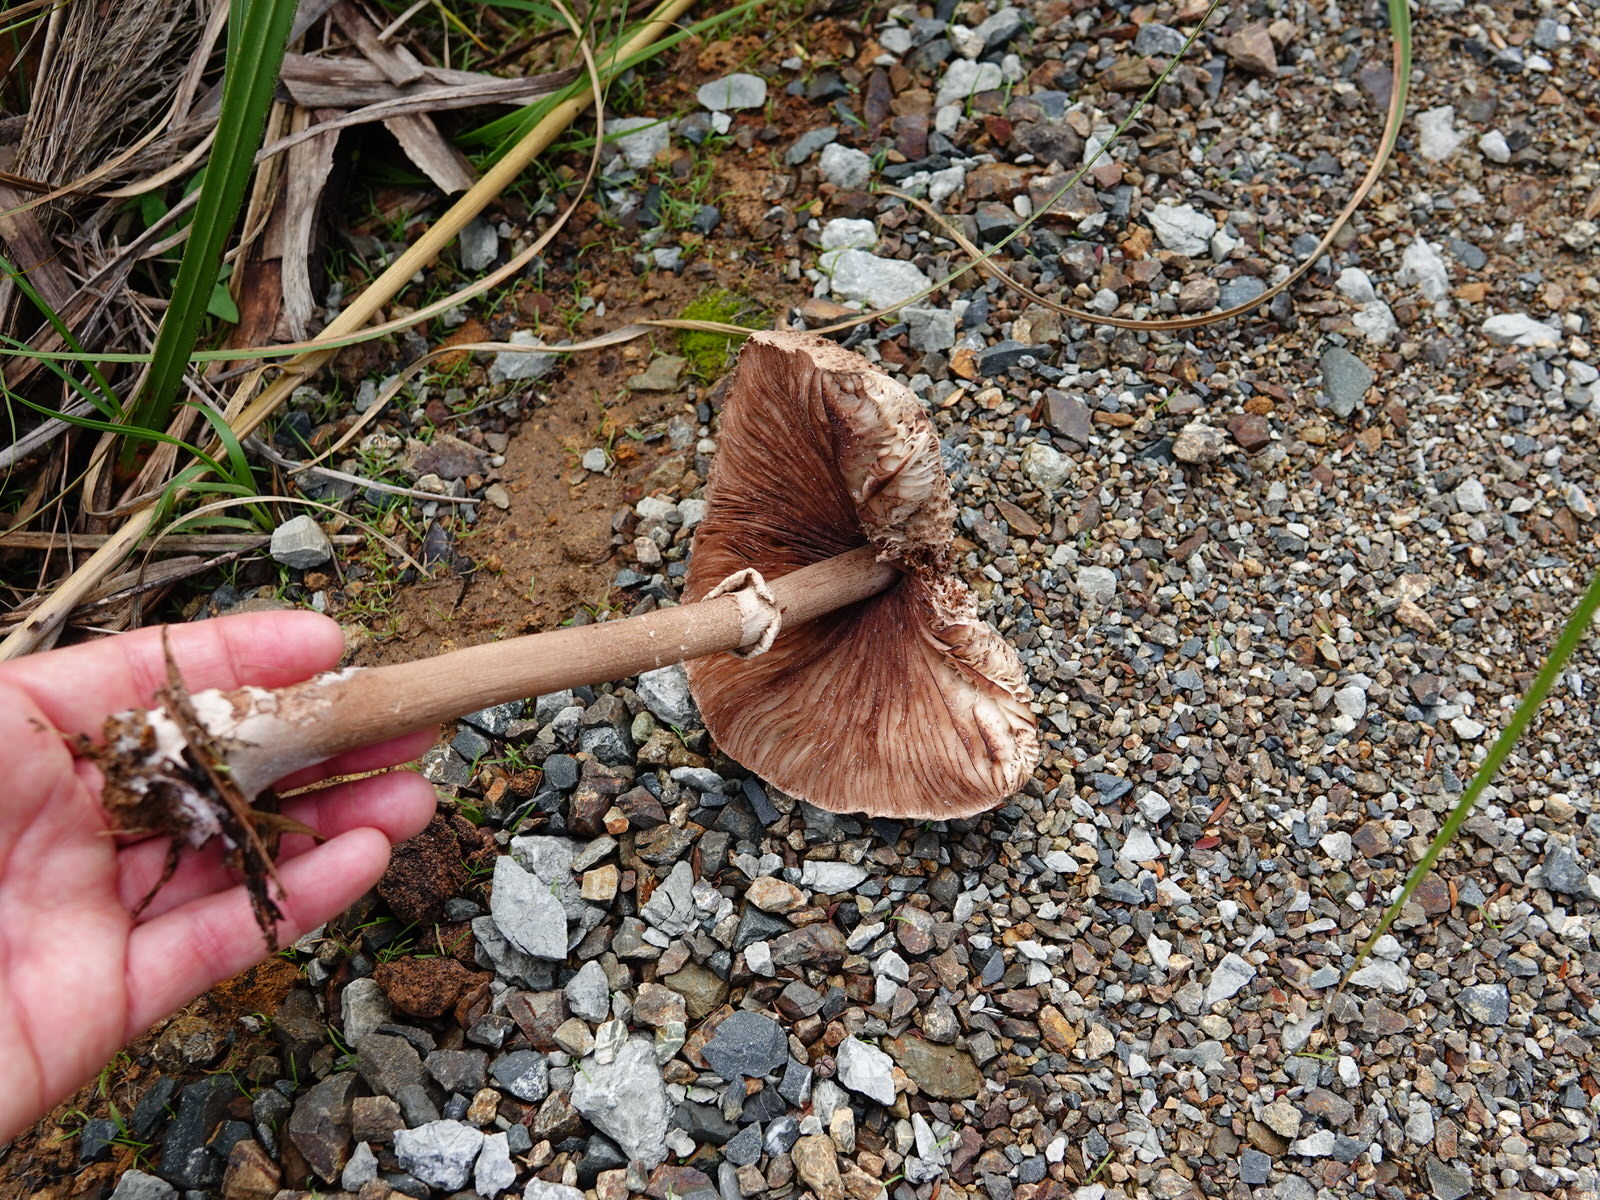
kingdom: Fungi
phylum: Basidiomycota
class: Agaricomycetes
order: Agaricales
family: Agaricaceae
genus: Macrolepiota
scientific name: Macrolepiota clelandii
